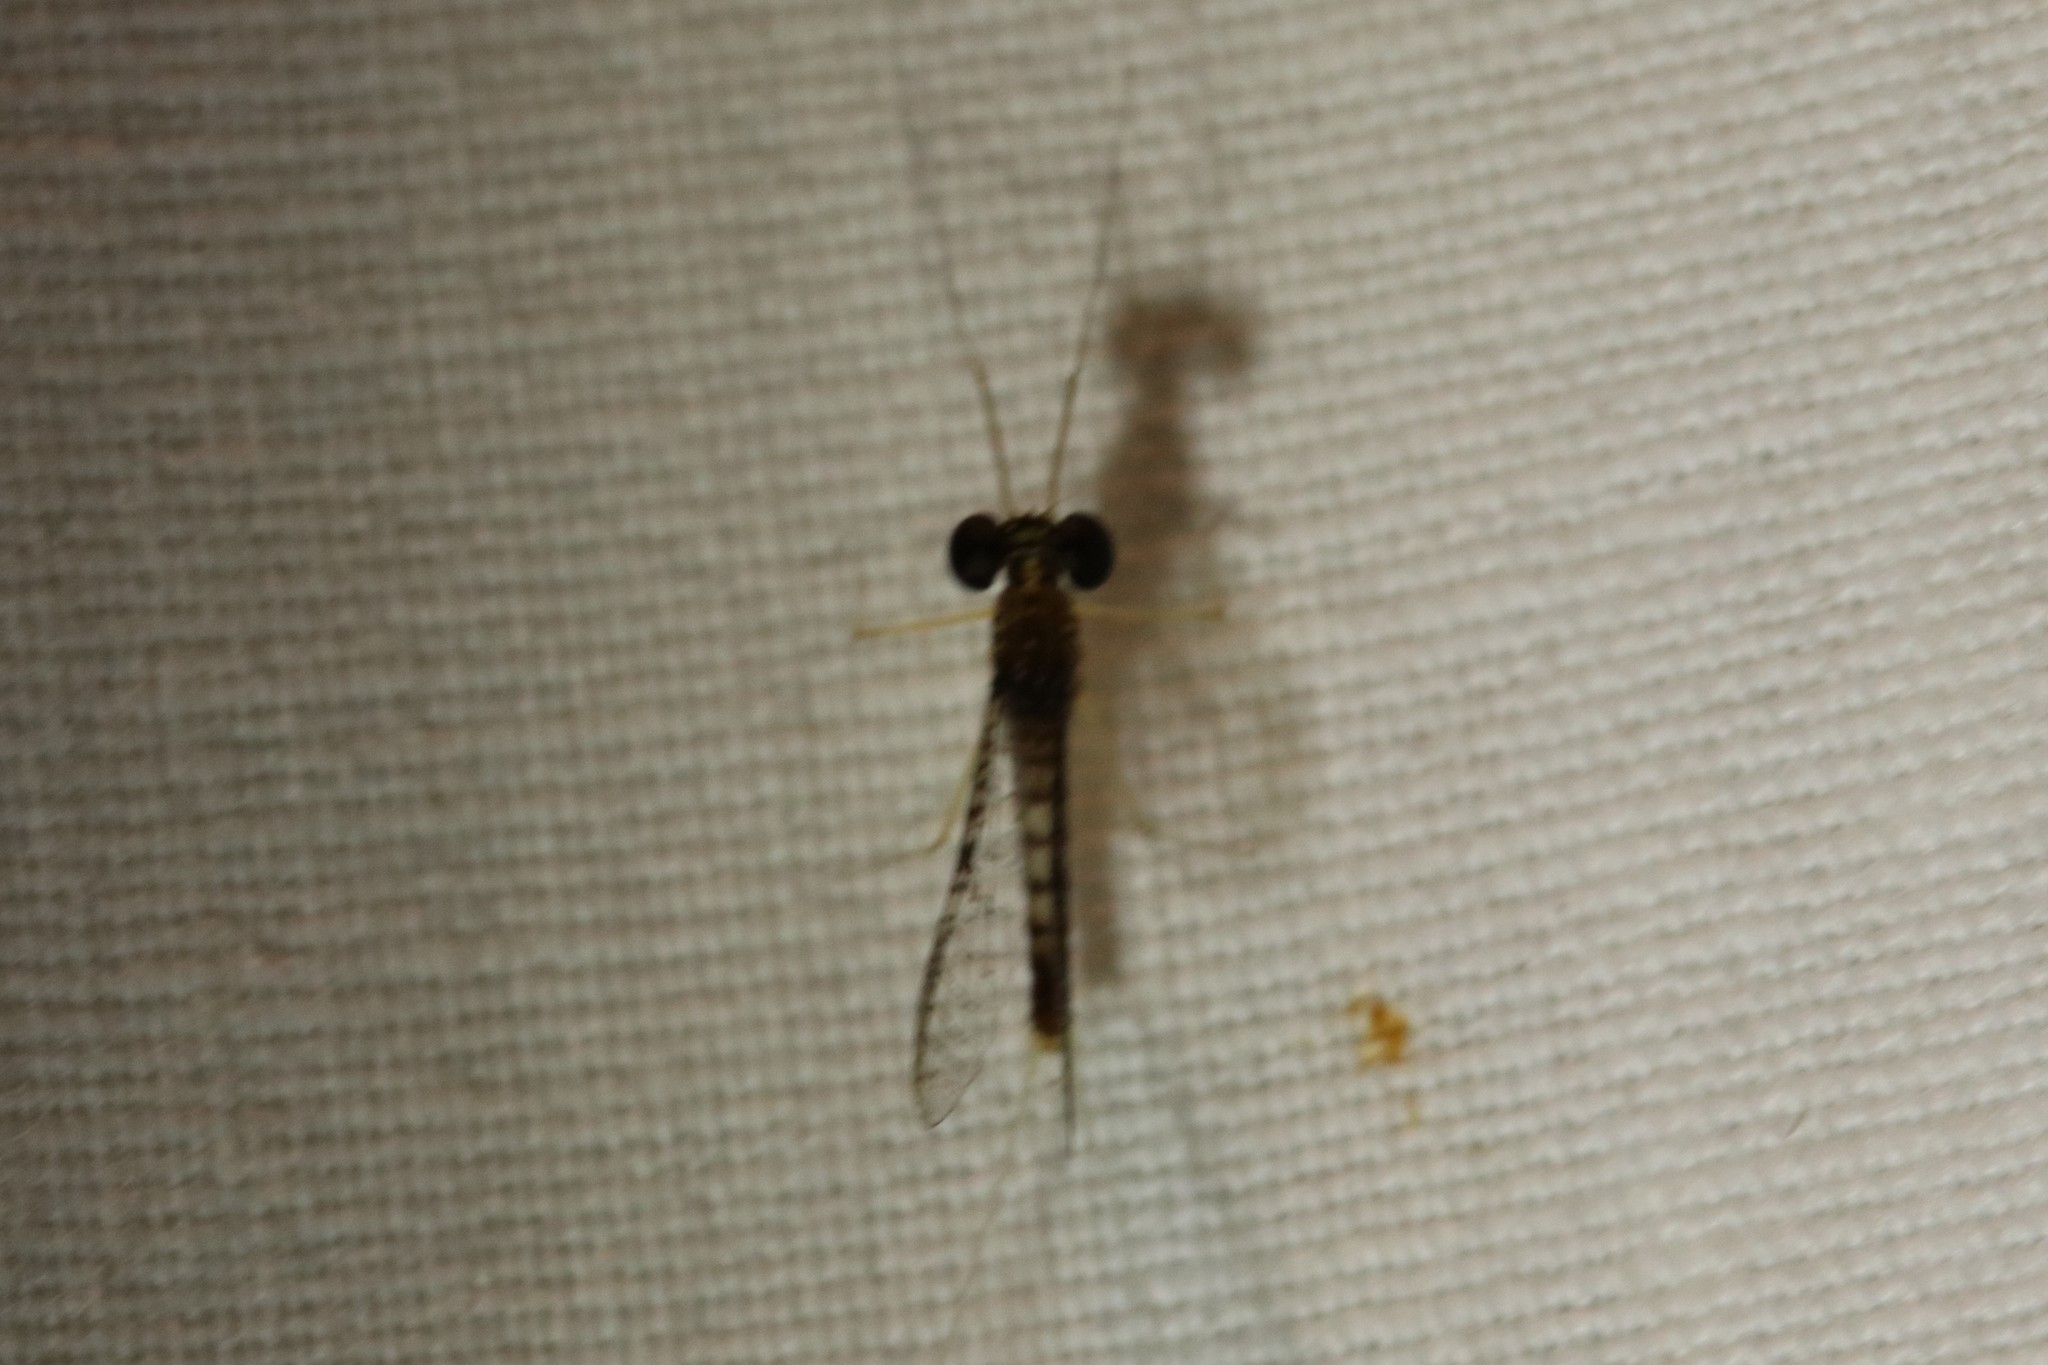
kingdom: Animalia
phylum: Arthropoda
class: Insecta
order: Ephemeroptera
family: Heptageniidae
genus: Leucrocuta
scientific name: Leucrocuta aphrodite
